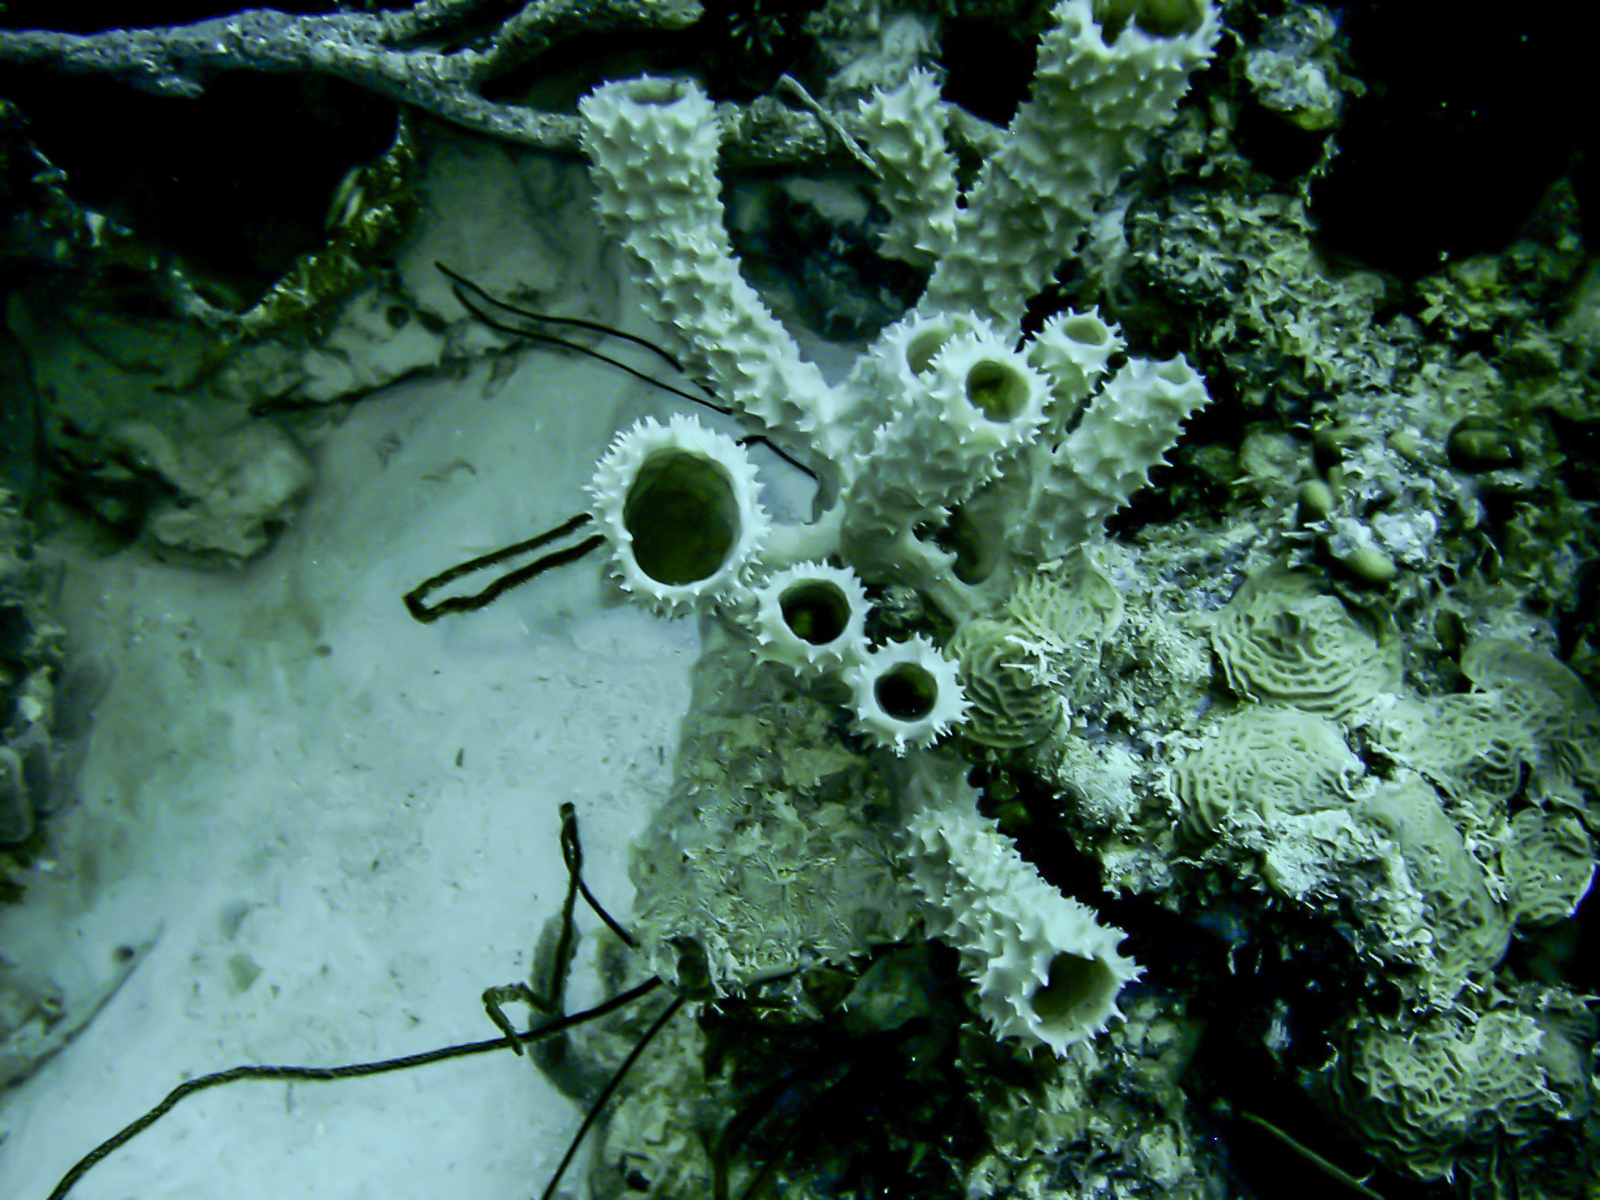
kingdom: Animalia
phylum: Porifera
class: Demospongiae
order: Haplosclerida
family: Callyspongiidae
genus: Callyspongia
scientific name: Callyspongia aculeata
